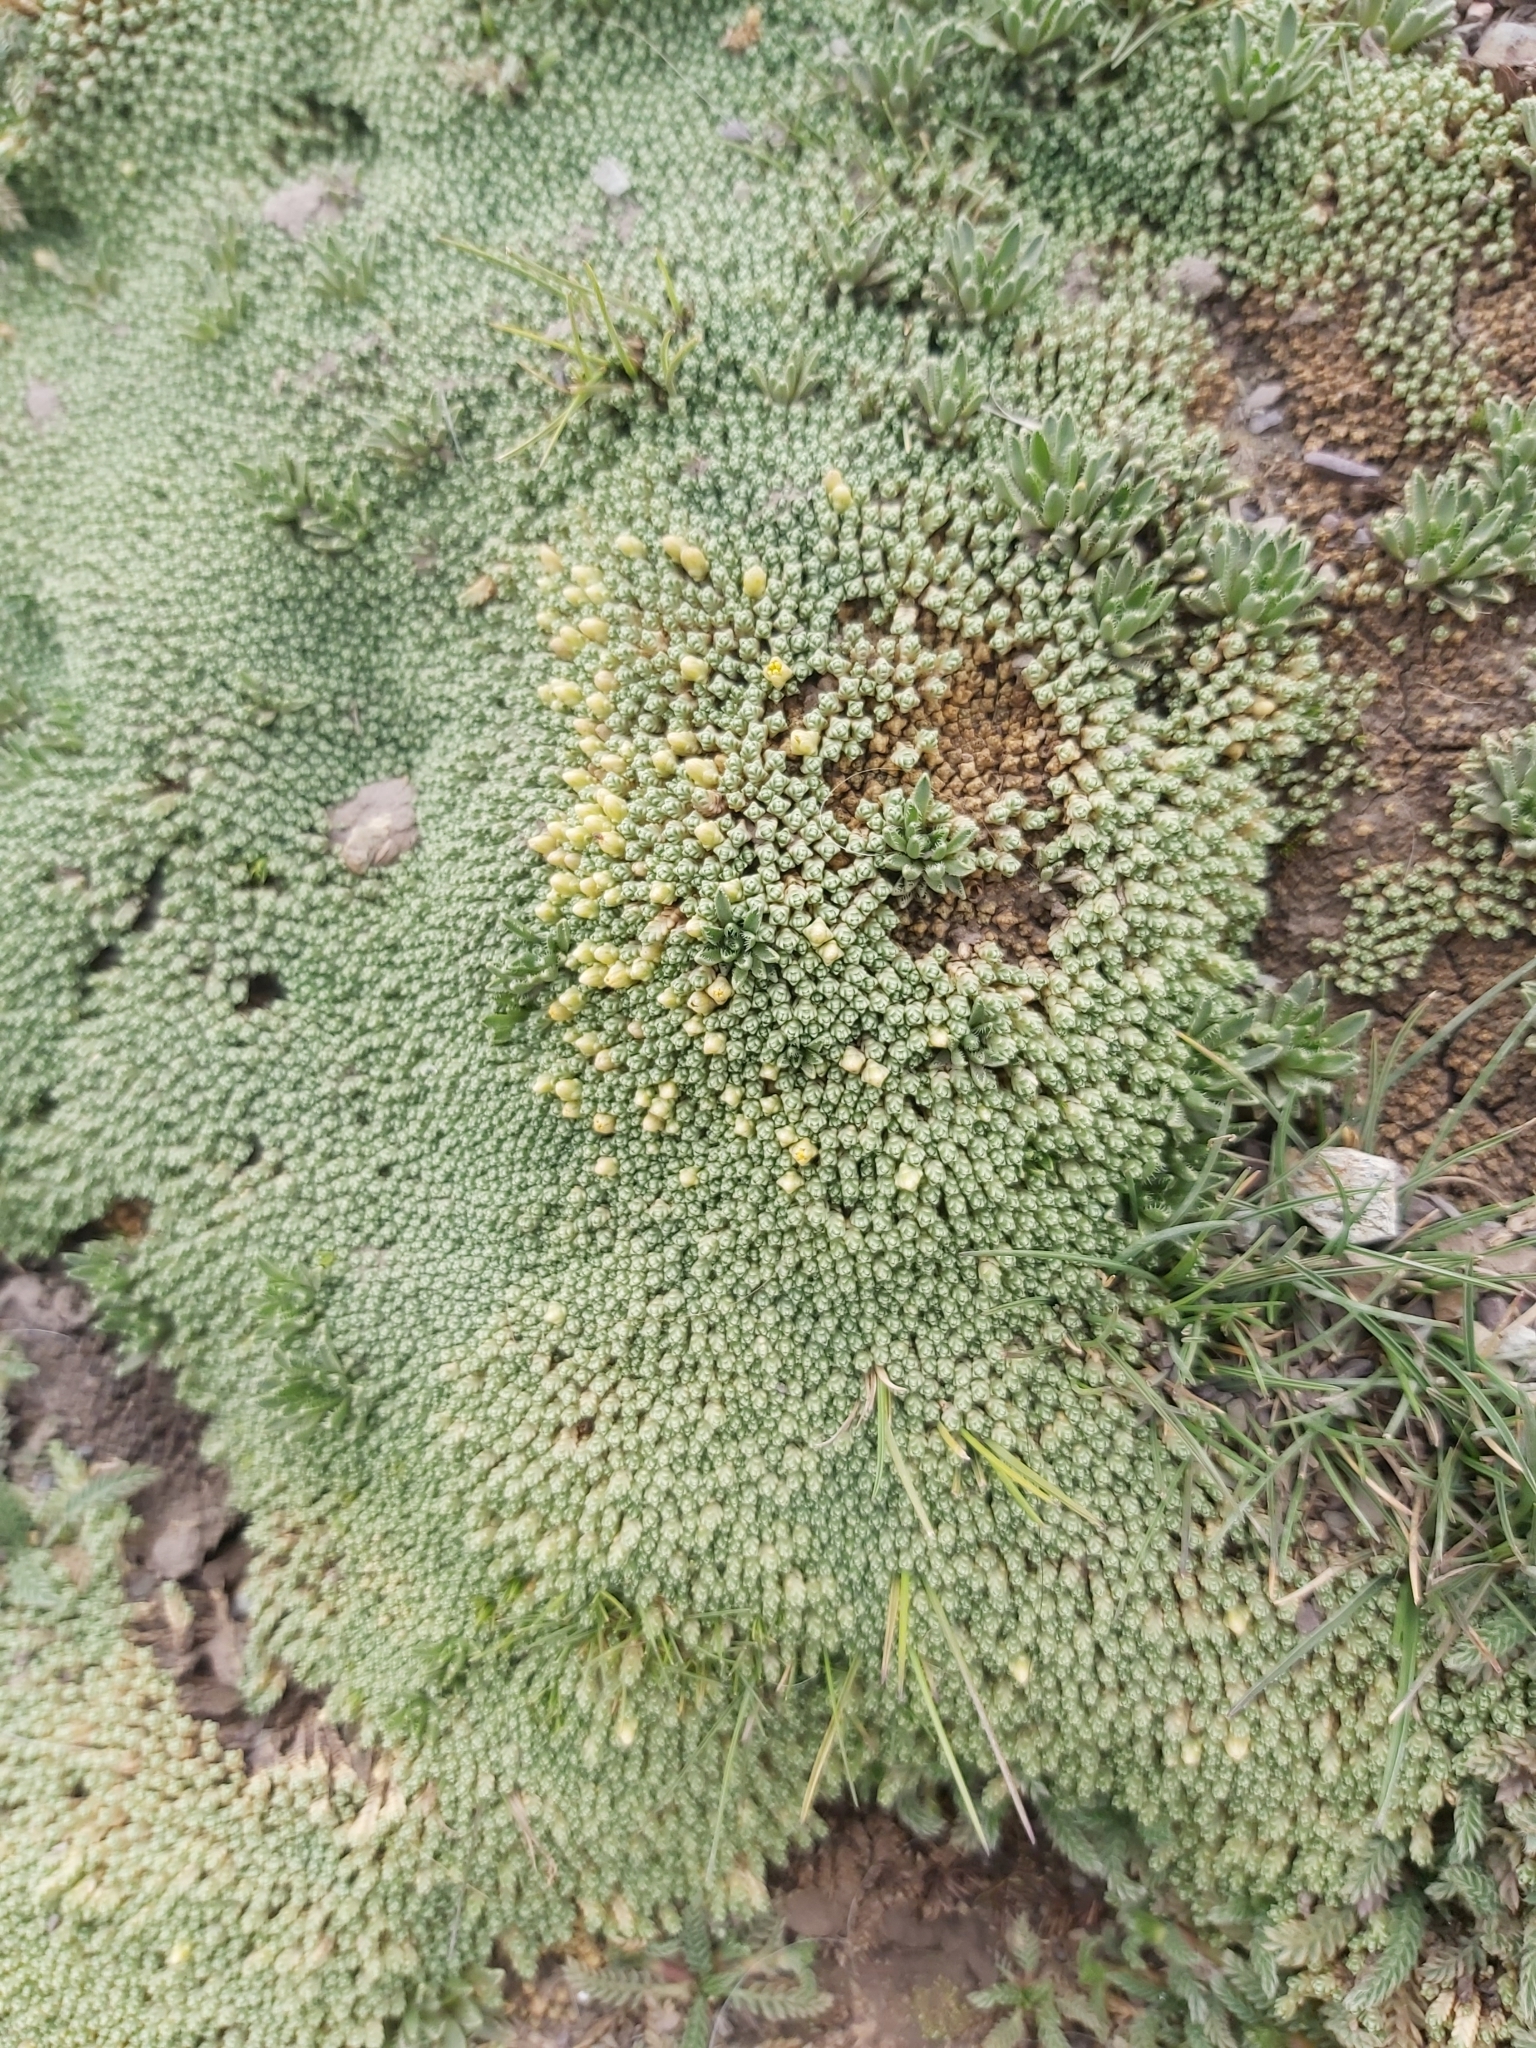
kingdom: Plantae
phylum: Tracheophyta
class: Magnoliopsida
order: Caryophyllales
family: Caryophyllaceae
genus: Pycnophyllum
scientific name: Pycnophyllum tetrastichum
